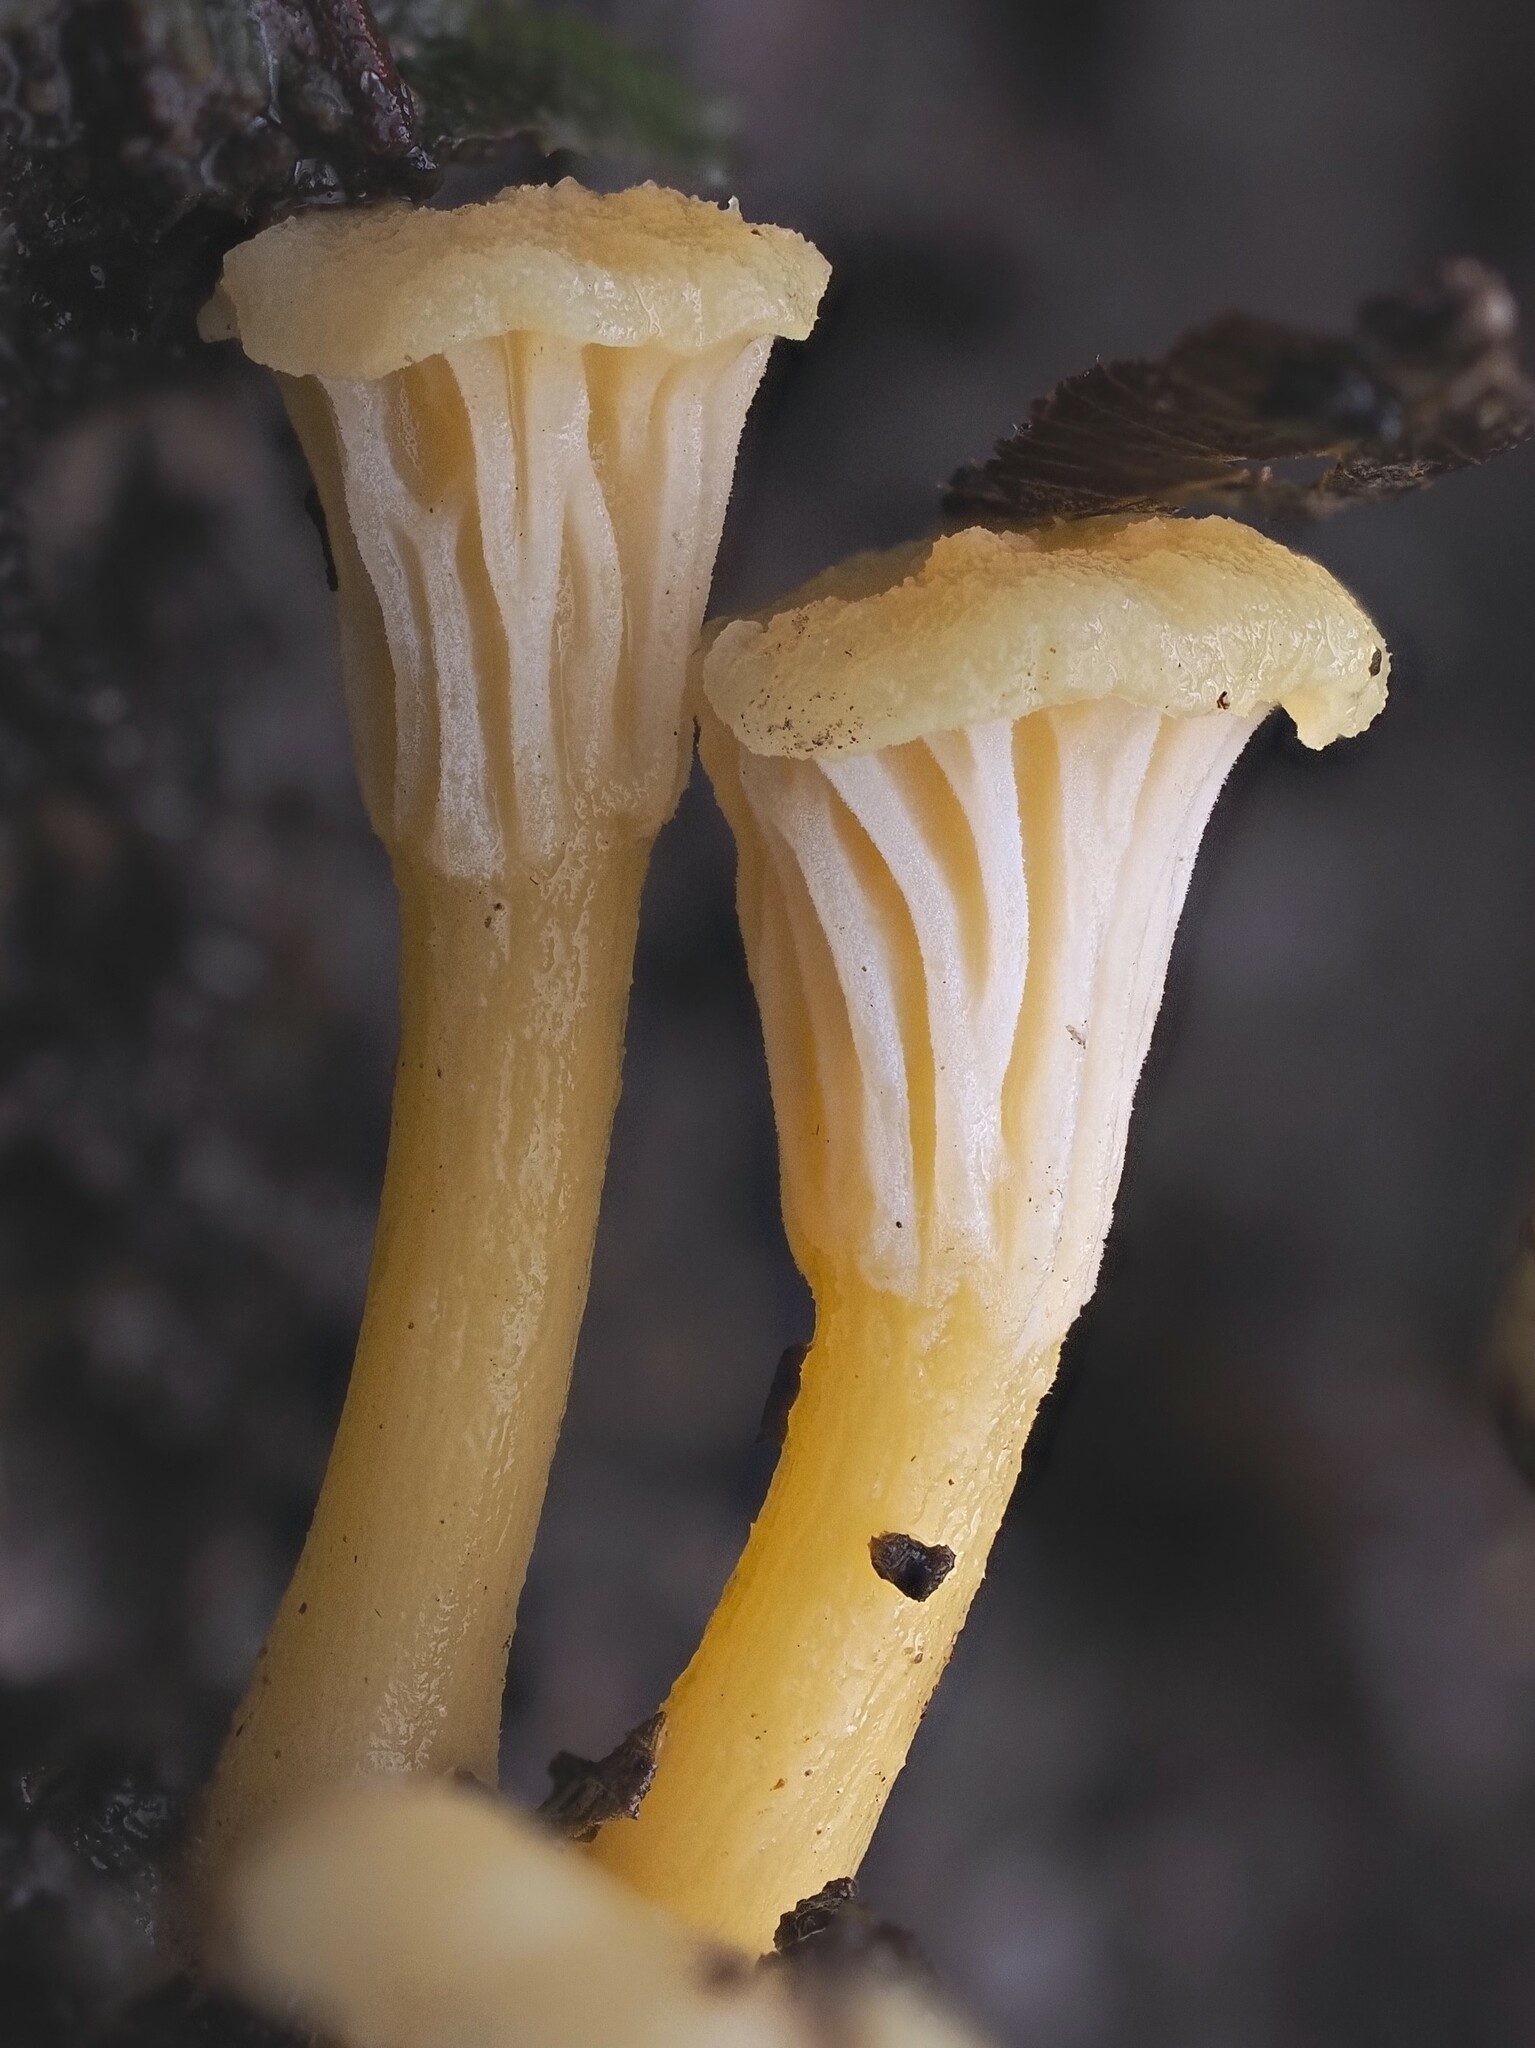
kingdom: Fungi
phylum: Basidiomycota
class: Agaricomycetes
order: Cantharellales
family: Hydnaceae
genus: Cantharellus
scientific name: Cantharellus wellingtonensis
